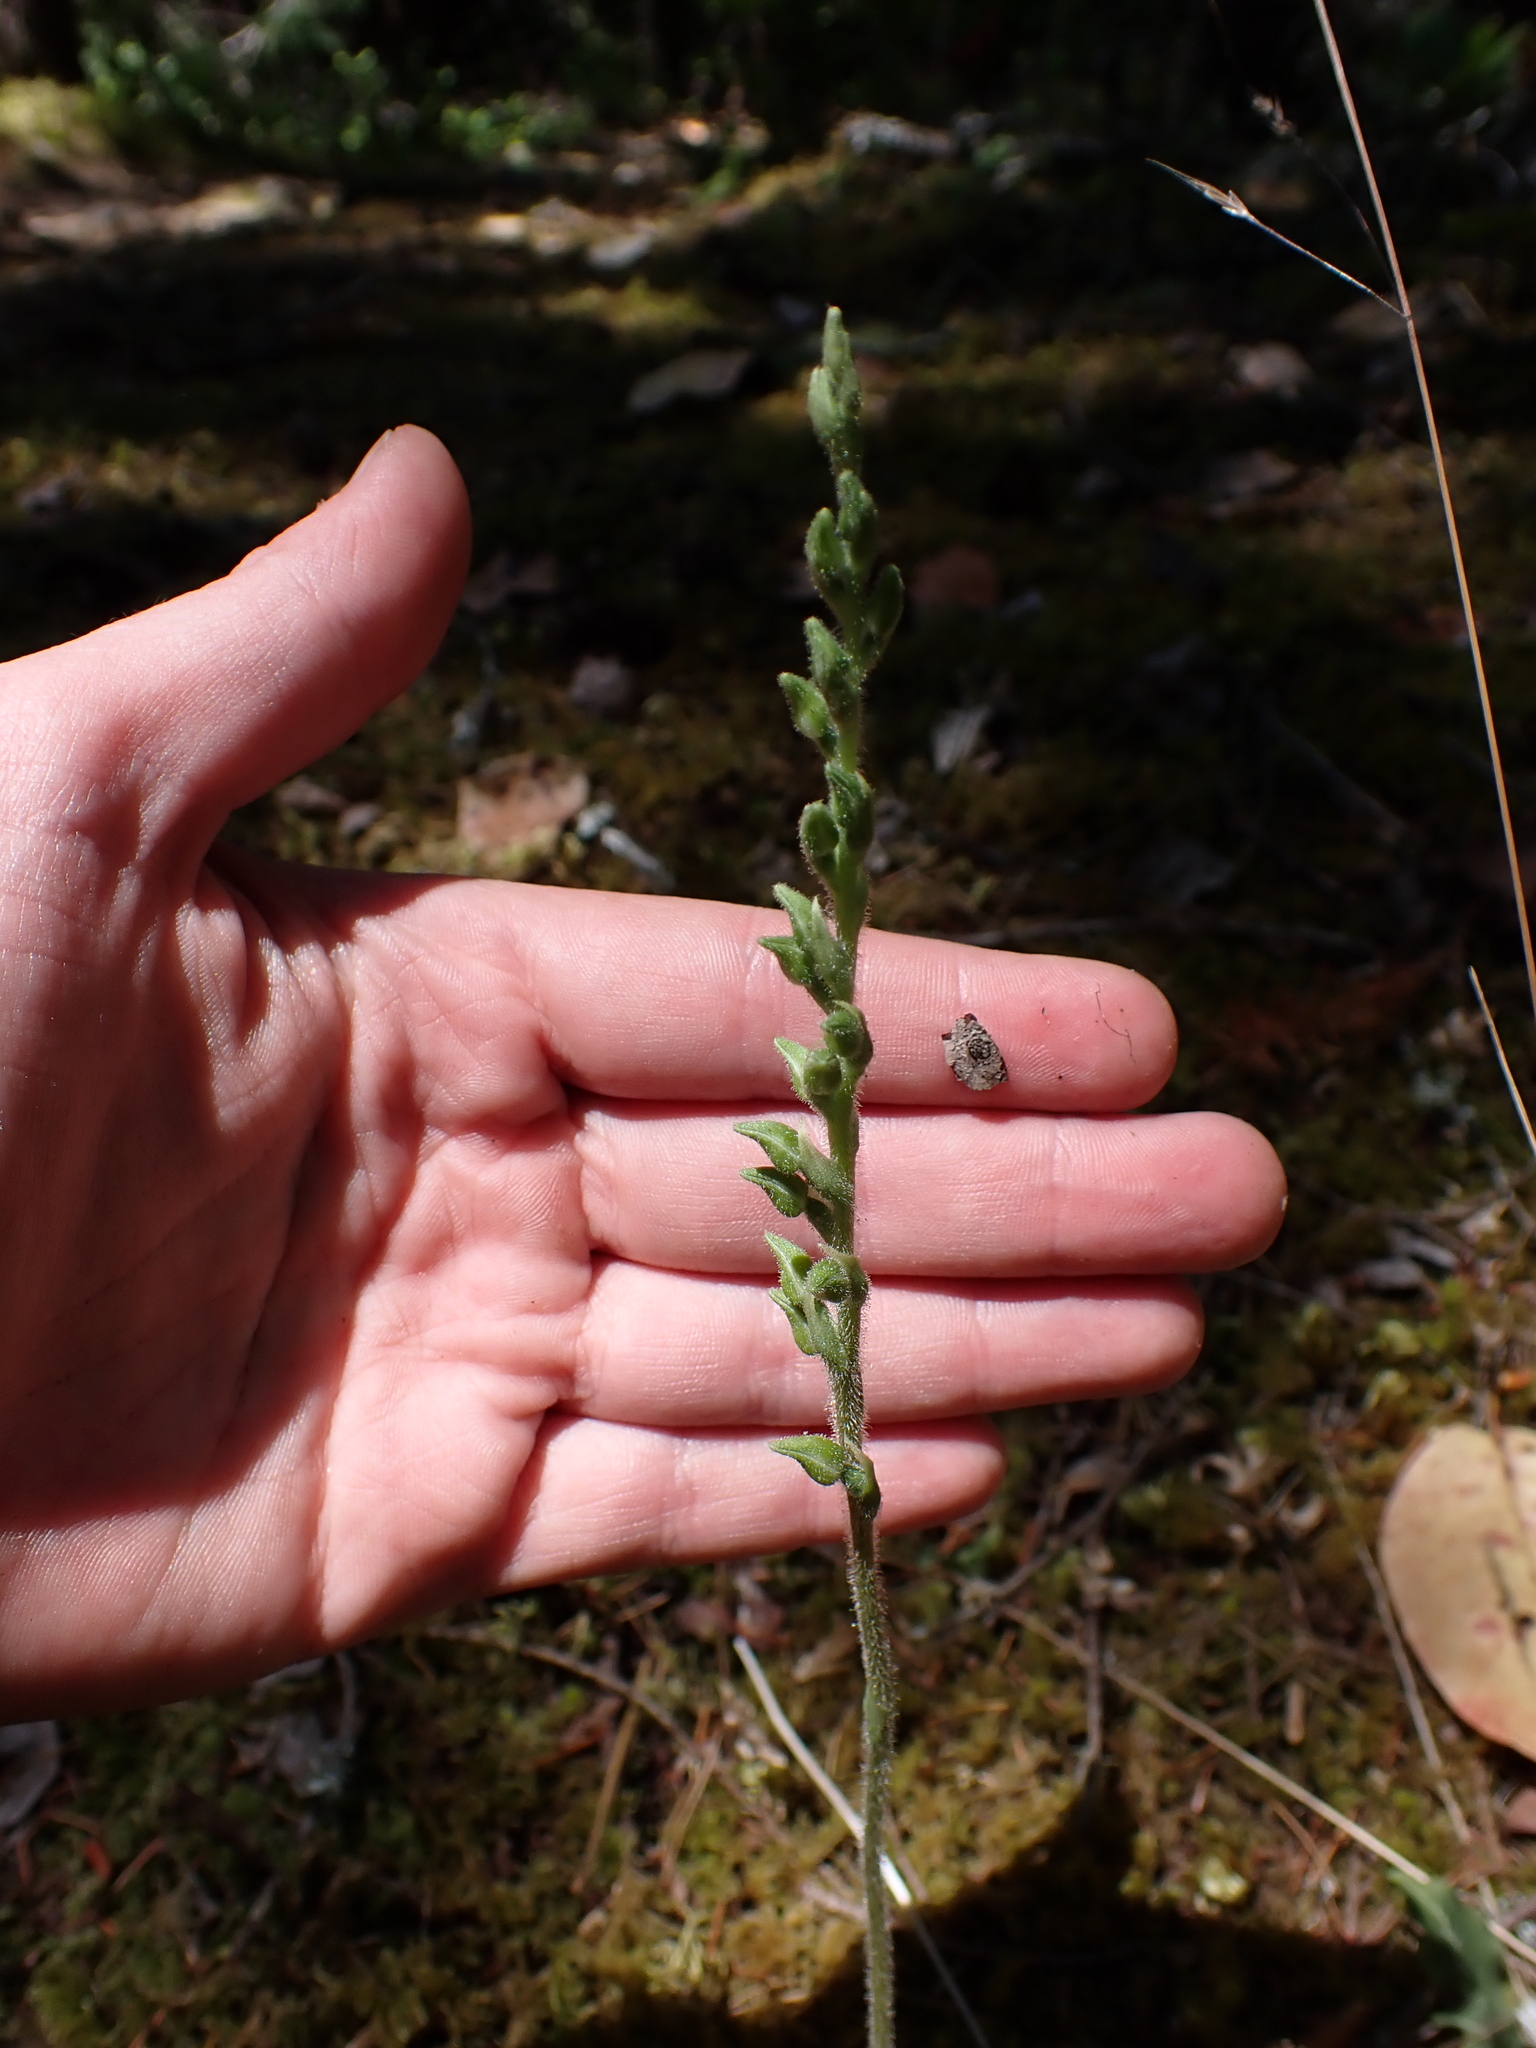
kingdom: Plantae
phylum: Tracheophyta
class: Liliopsida
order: Asparagales
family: Orchidaceae
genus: Goodyera
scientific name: Goodyera oblongifolia
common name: Giant rattlesnake-plantain
